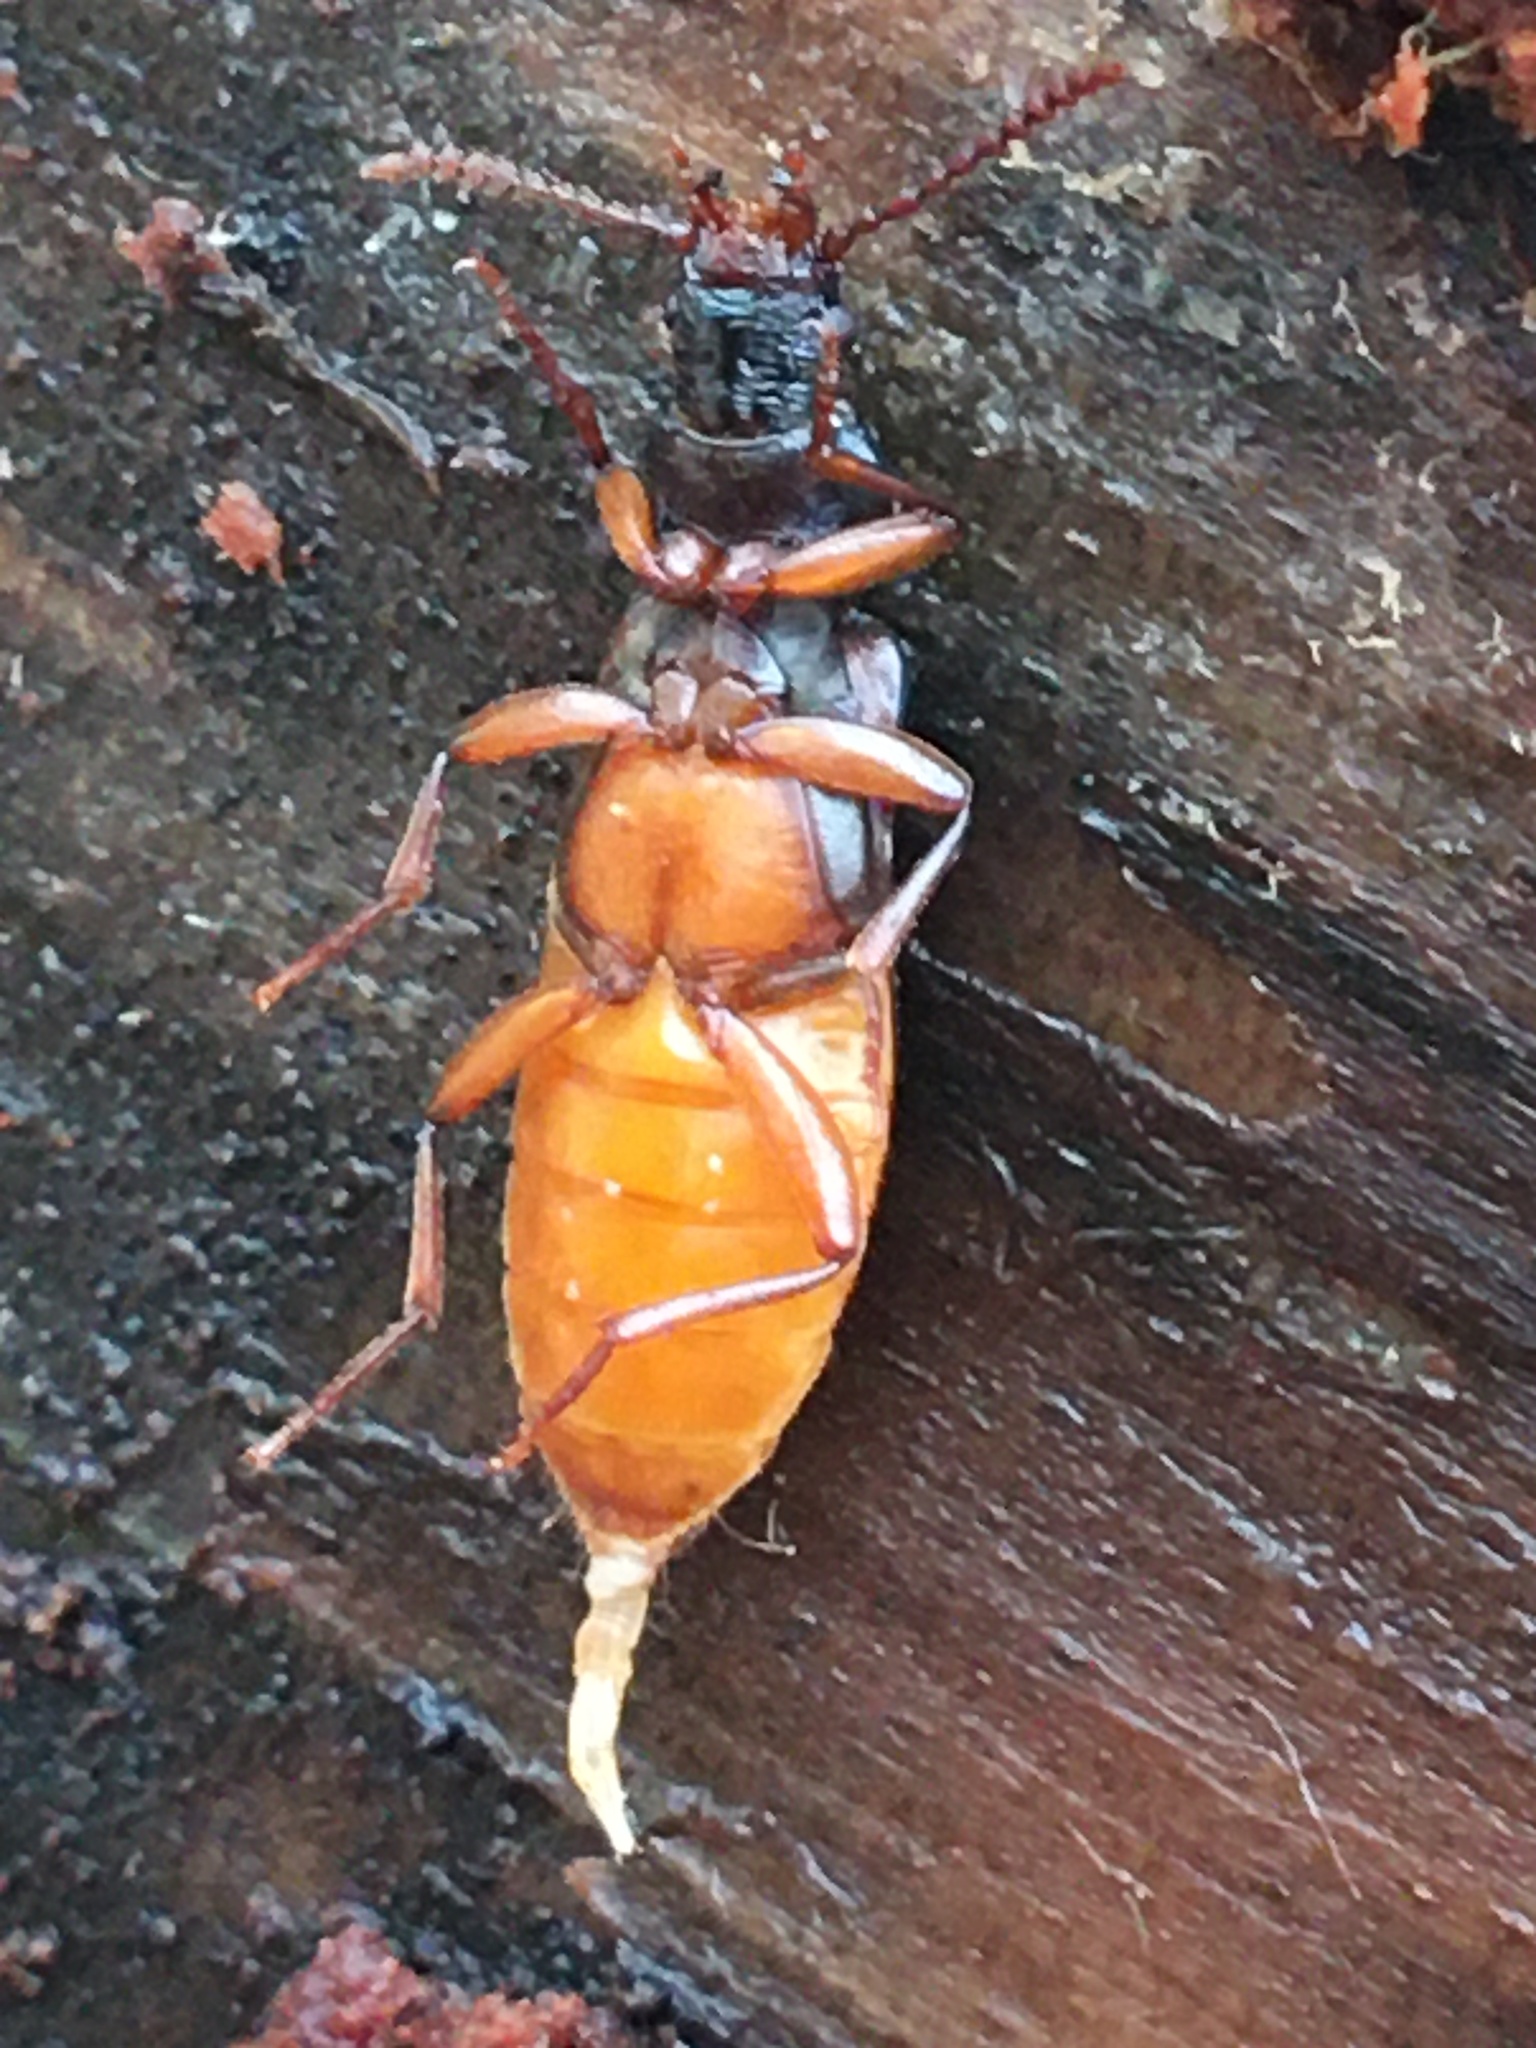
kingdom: Animalia
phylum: Arthropoda
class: Insecta
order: Coleoptera
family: Pythidae
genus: Pytho
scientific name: Pytho americanus
